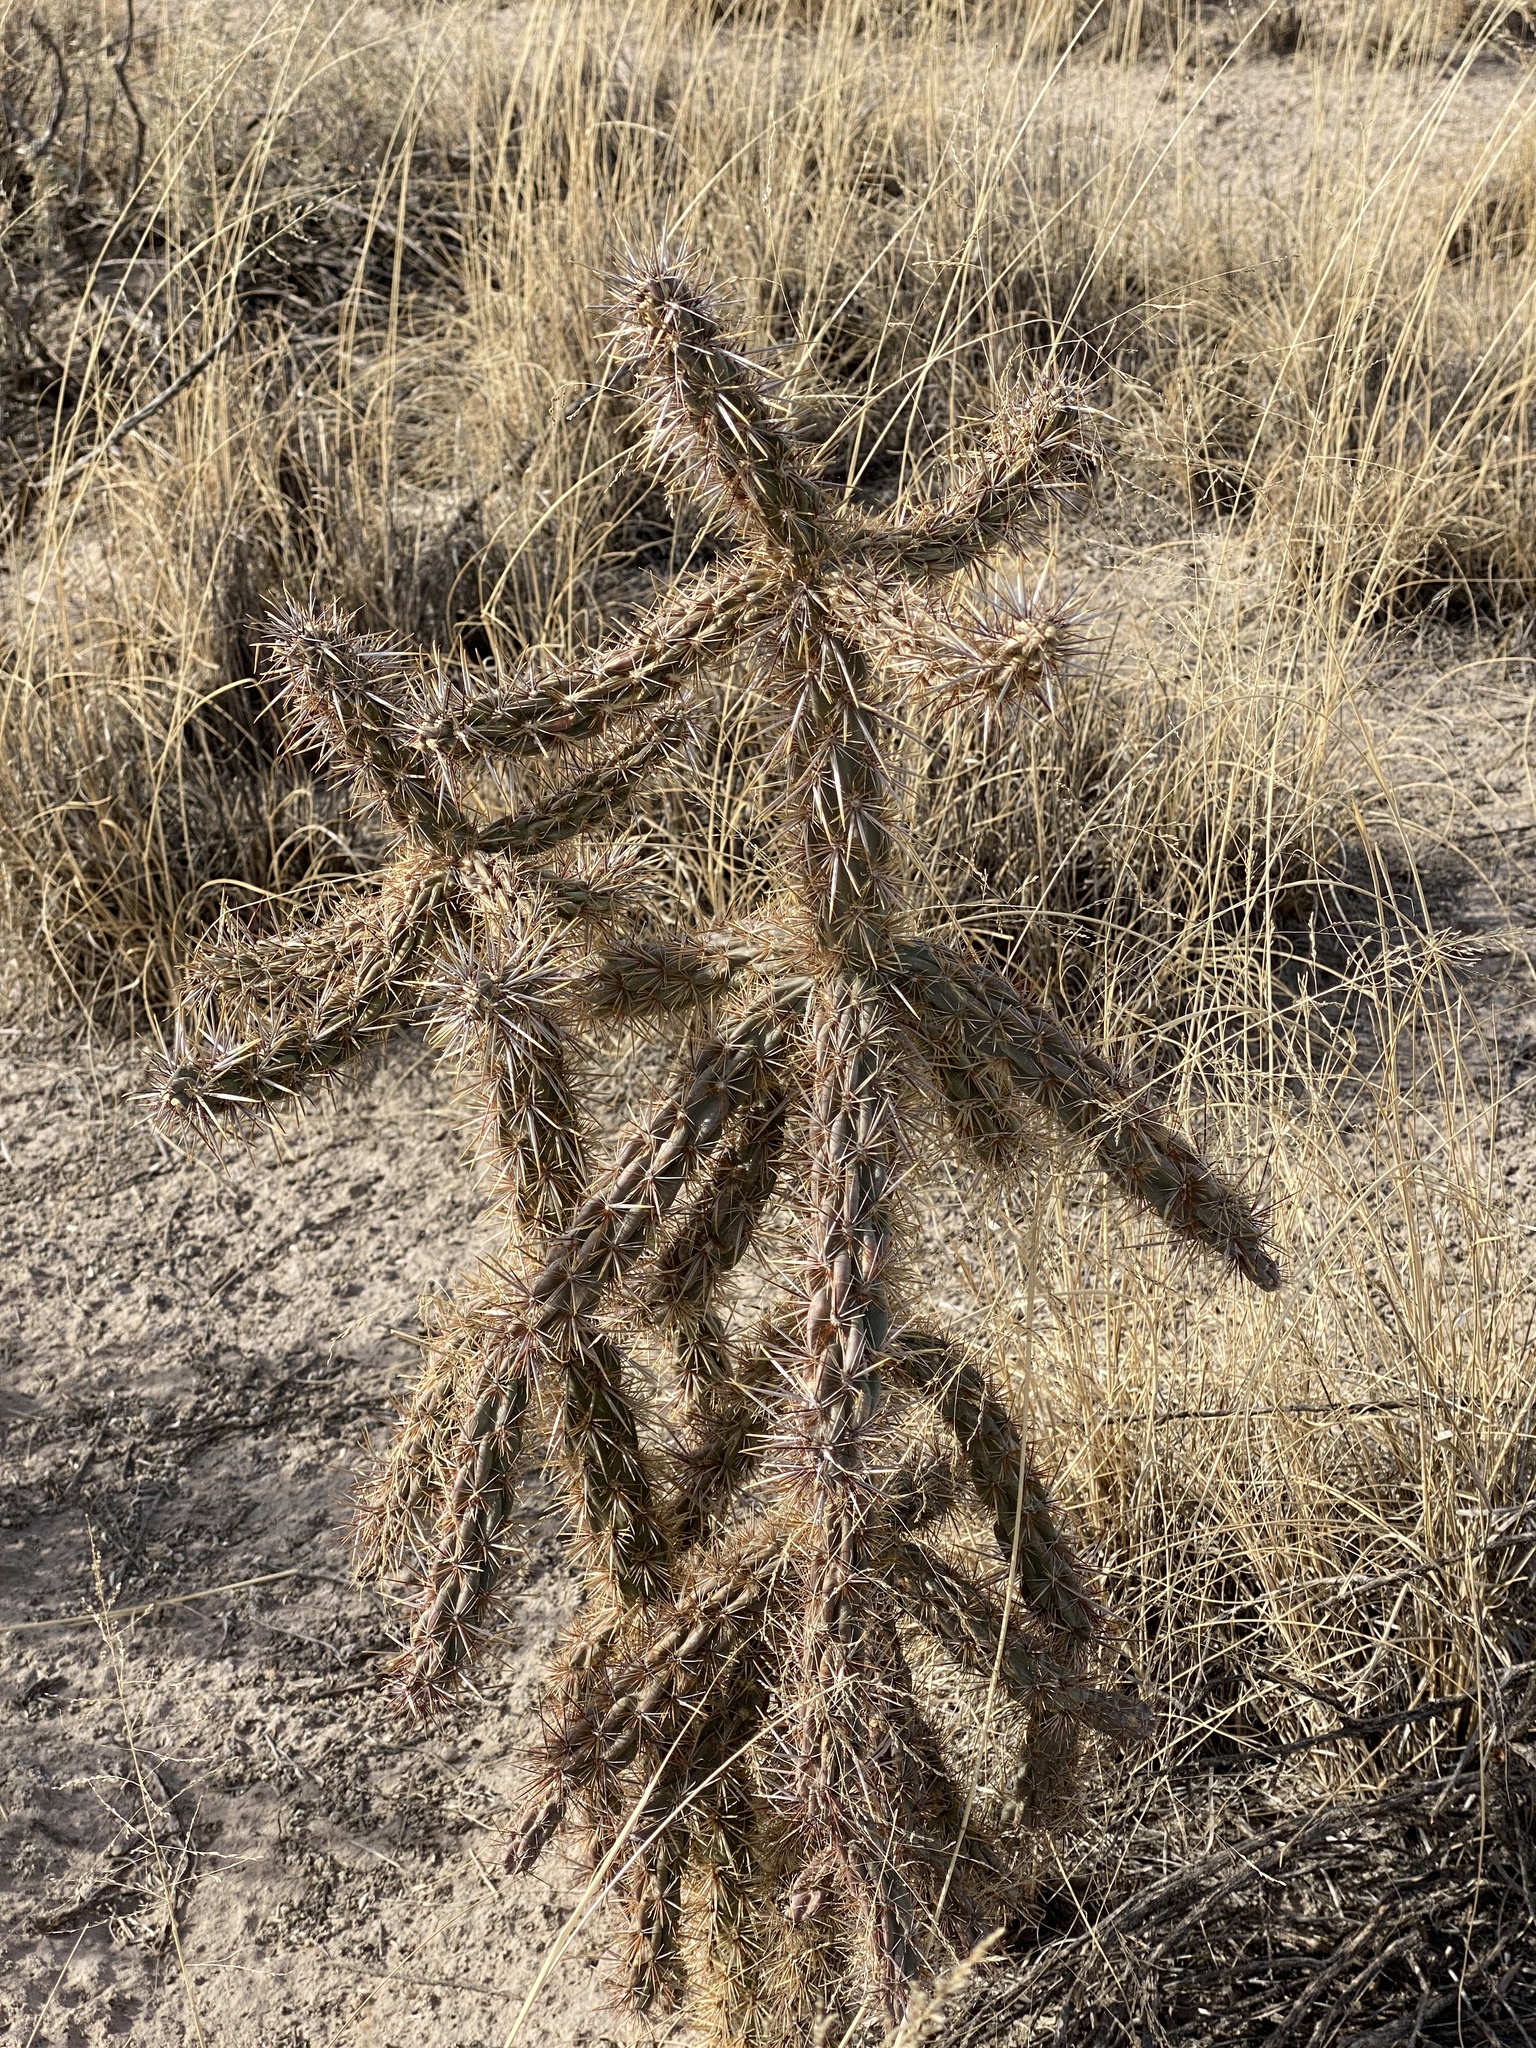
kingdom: Plantae
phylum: Tracheophyta
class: Magnoliopsida
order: Caryophyllales
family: Cactaceae
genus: Cylindropuntia
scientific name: Cylindropuntia imbricata
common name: Candelabrum cactus
